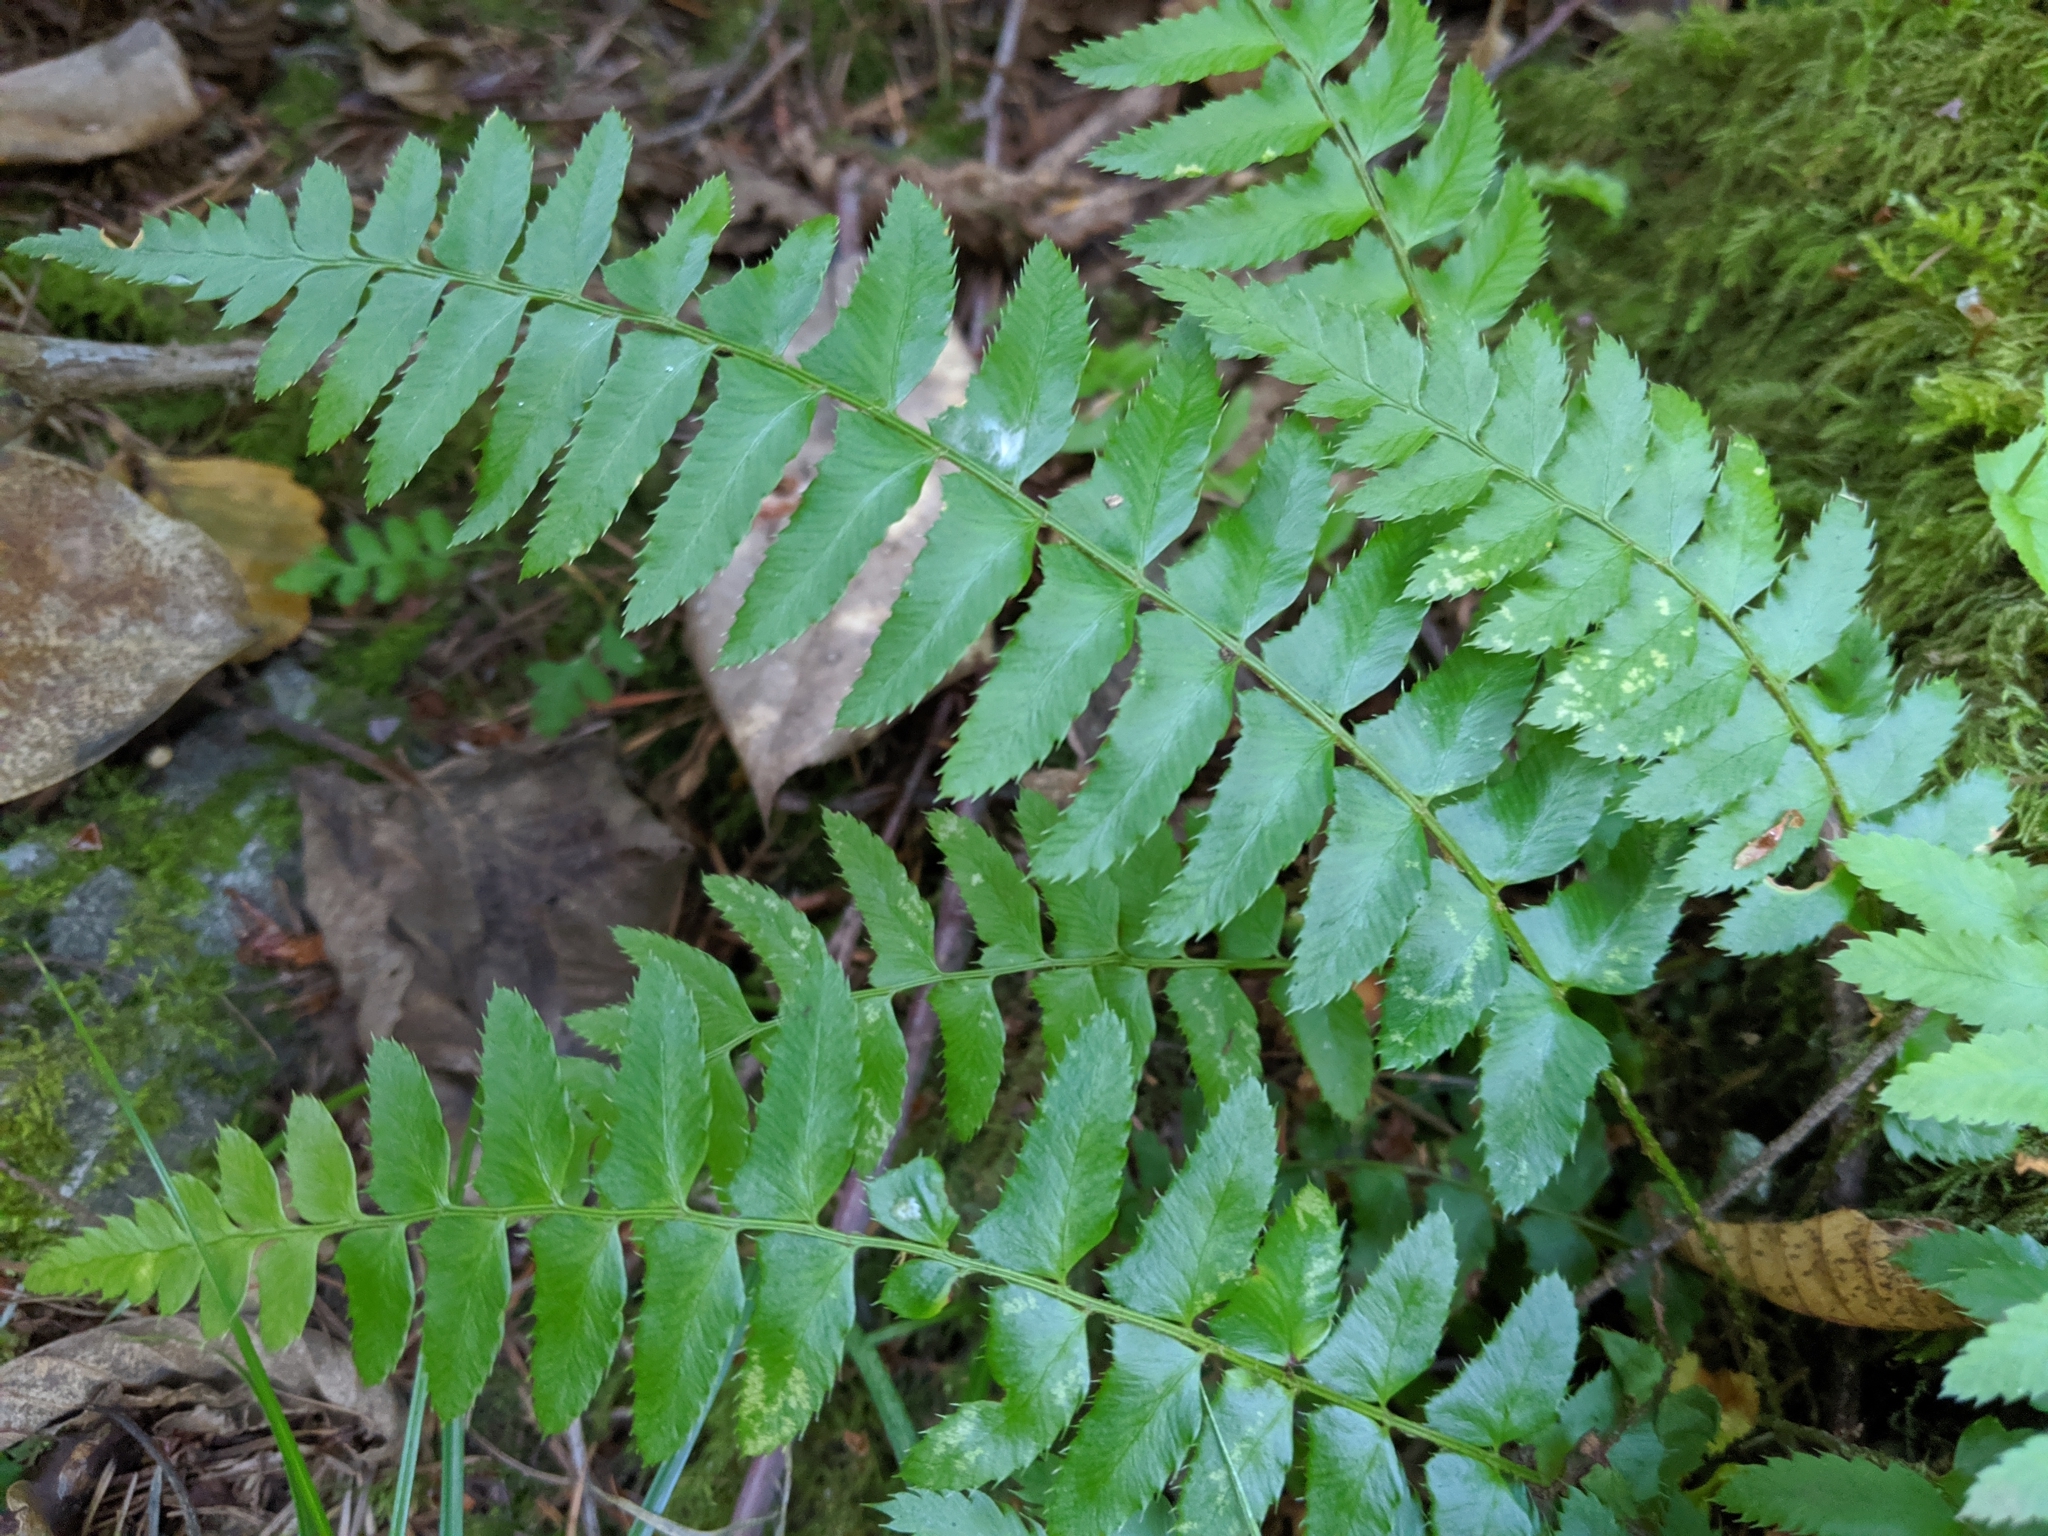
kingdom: Plantae
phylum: Tracheophyta
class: Polypodiopsida
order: Polypodiales
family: Dryopteridaceae
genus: Polystichum
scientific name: Polystichum munitum
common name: Western sword-fern
